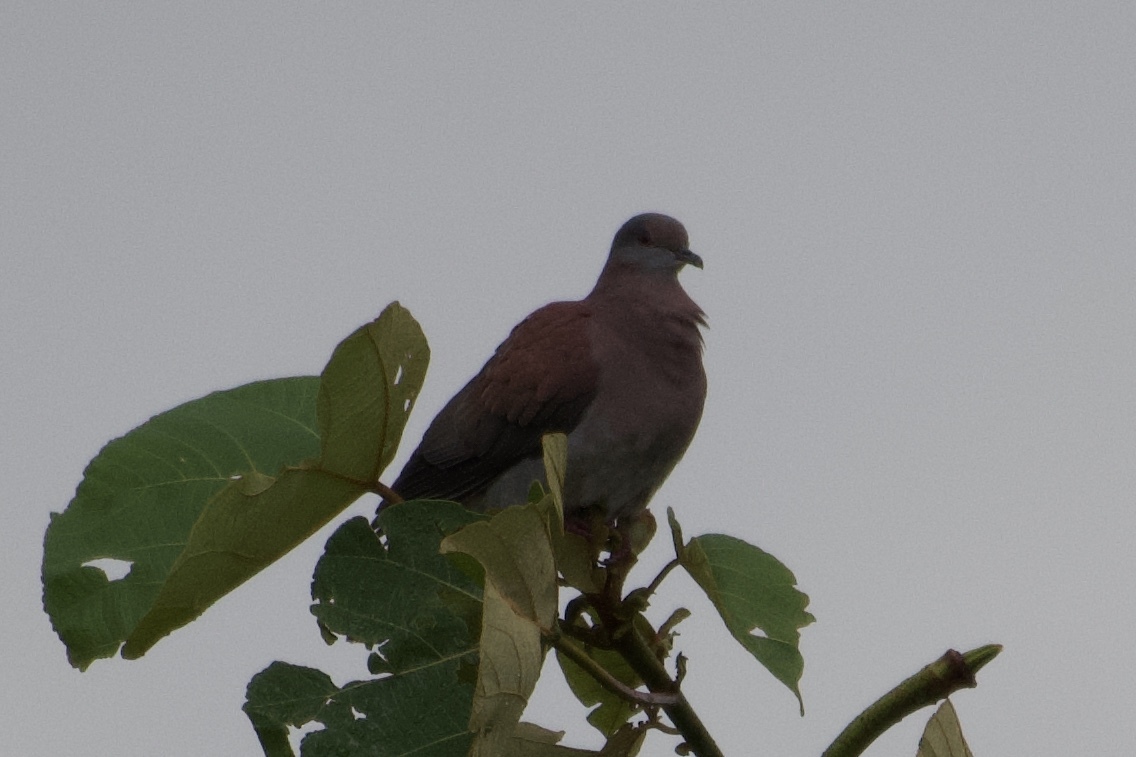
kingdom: Animalia
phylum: Chordata
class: Aves
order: Columbiformes
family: Columbidae
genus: Patagioenas
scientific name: Patagioenas cayennensis
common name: Pale-vented pigeon
